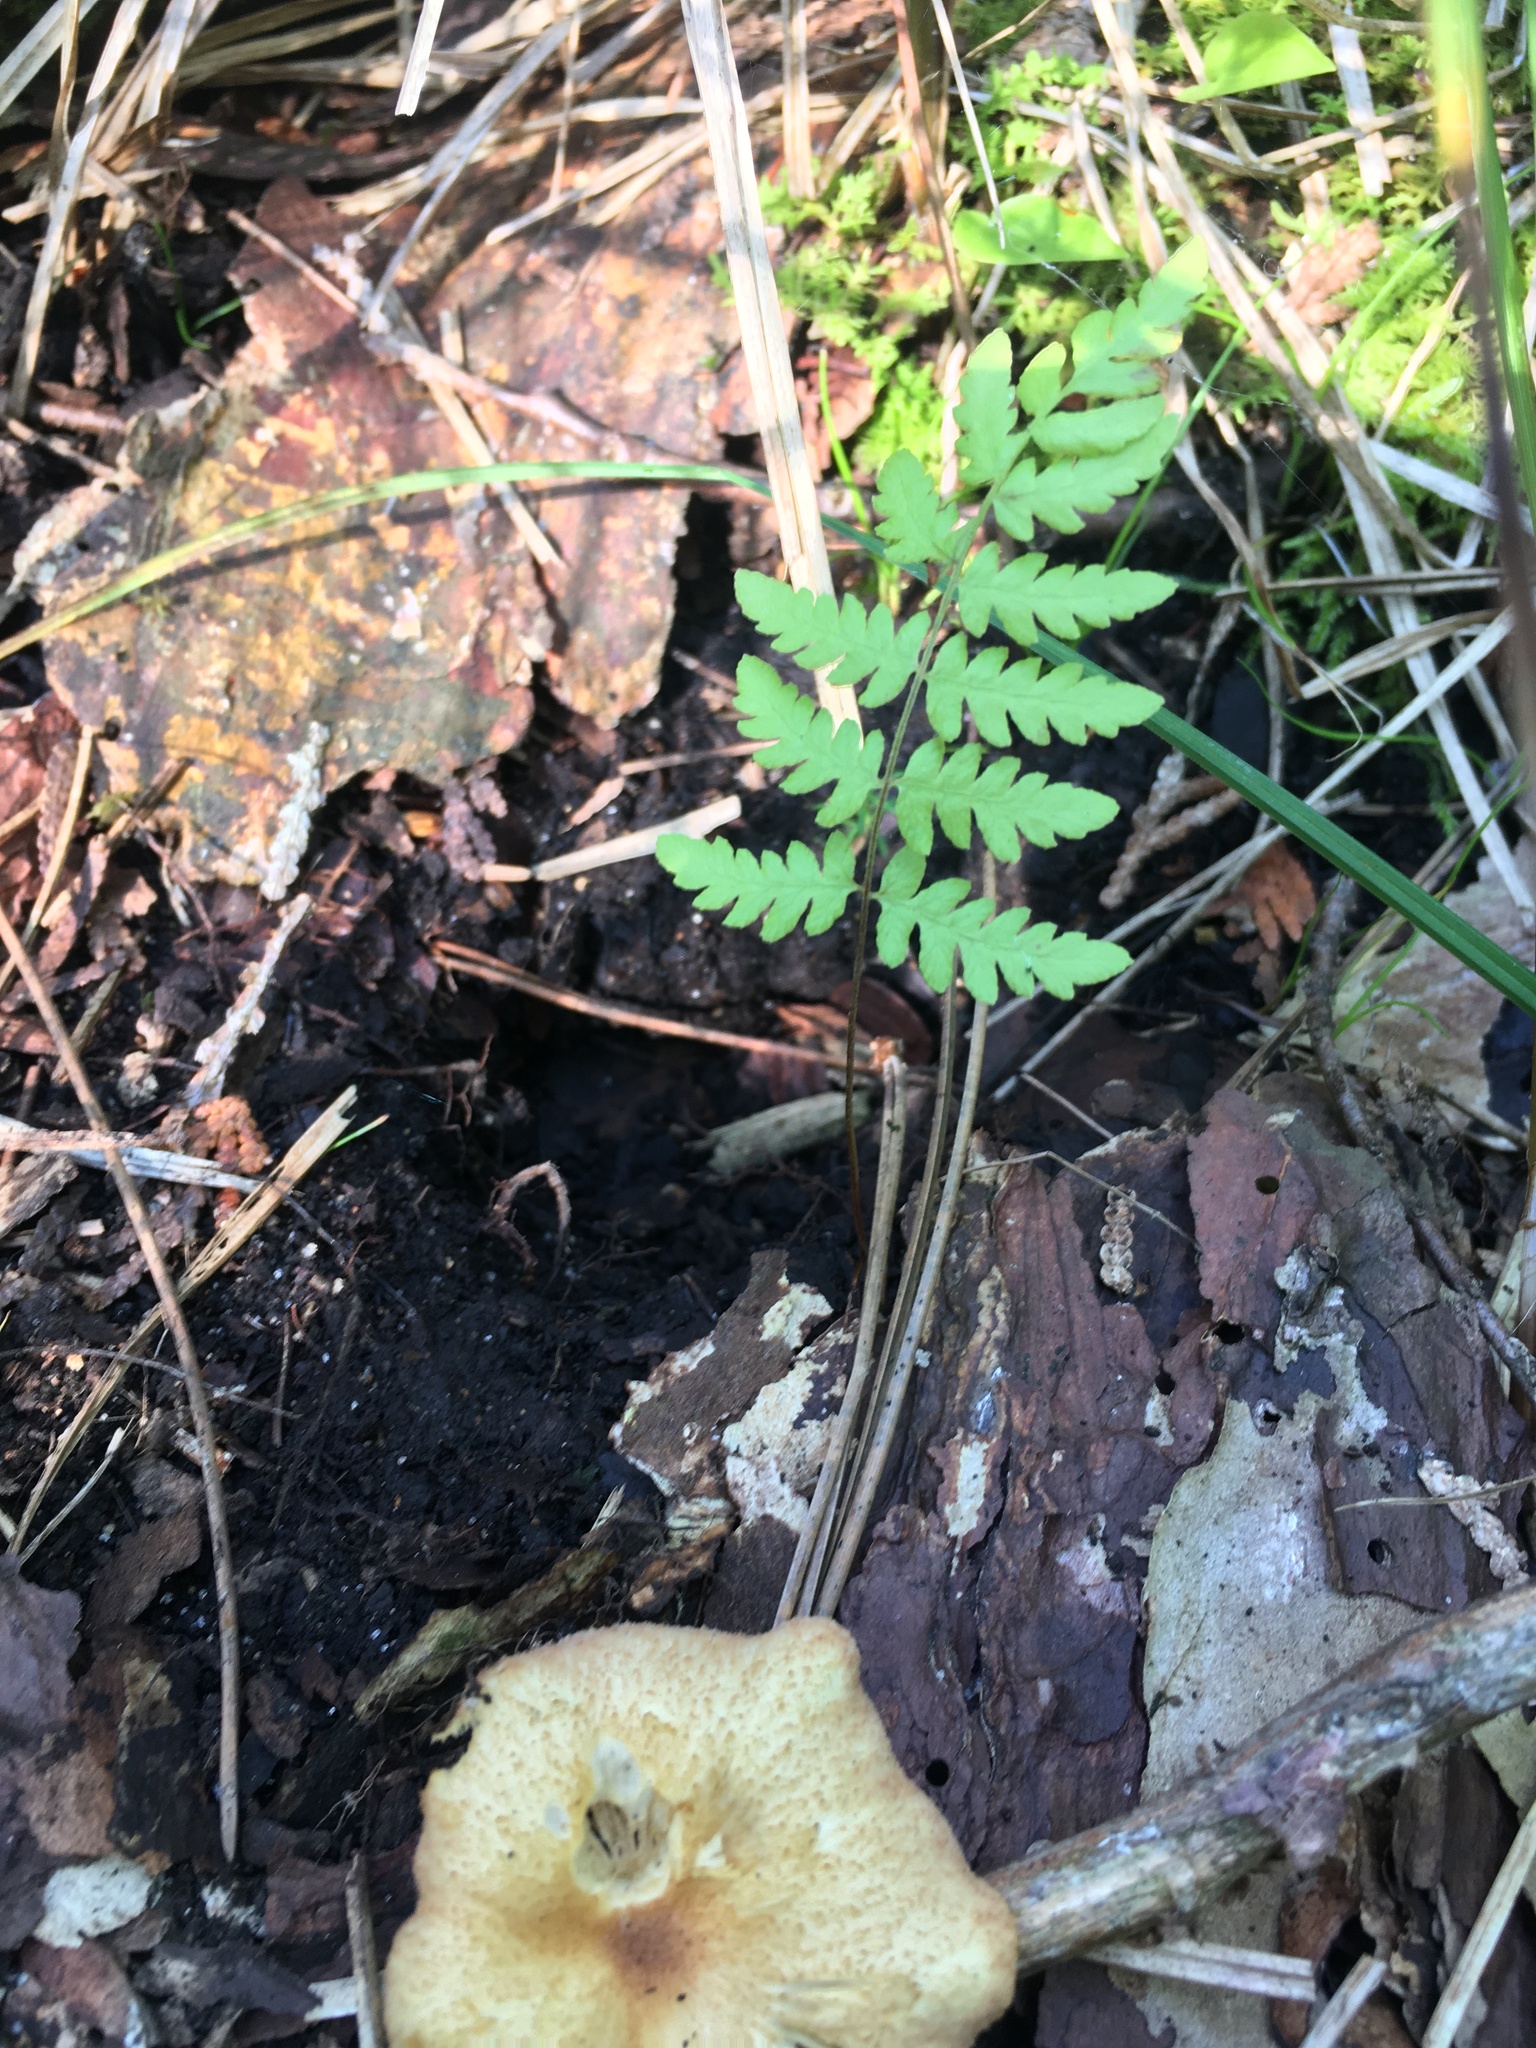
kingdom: Plantae
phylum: Tracheophyta
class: Polypodiopsida
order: Polypodiales
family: Thelypteridaceae
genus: Thelypteris
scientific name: Thelypteris palustris
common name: Marsh fern
